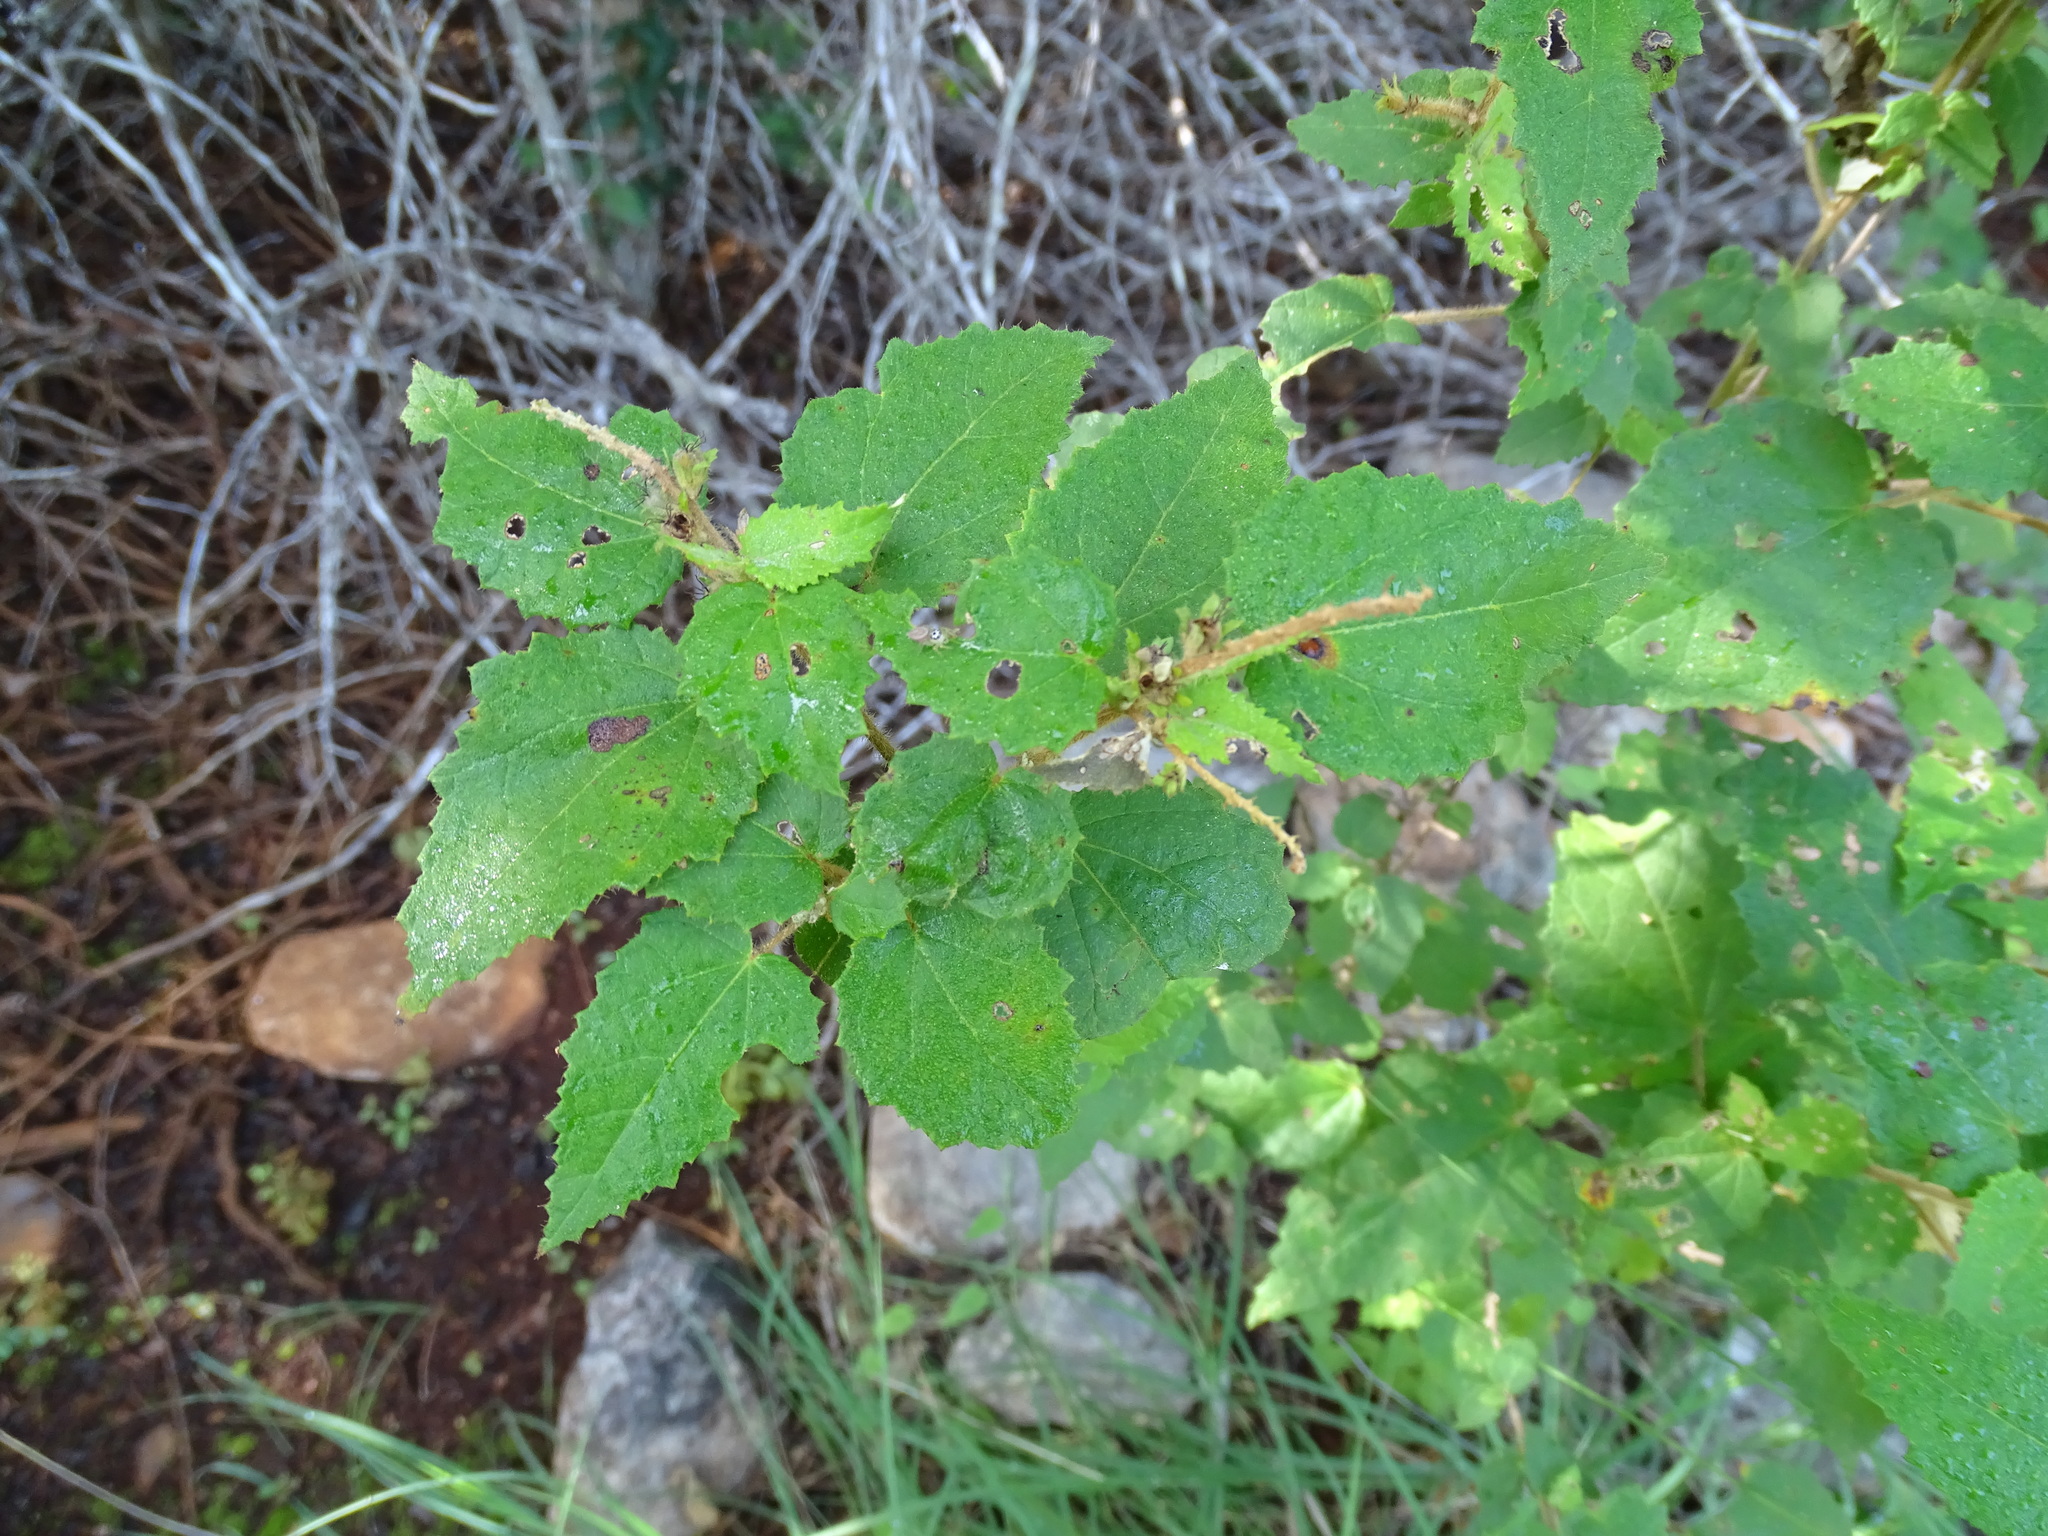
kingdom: Plantae
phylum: Tracheophyta
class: Magnoliopsida
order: Malpighiales
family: Euphorbiaceae
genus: Croton
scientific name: Croton malvavisciifolius
